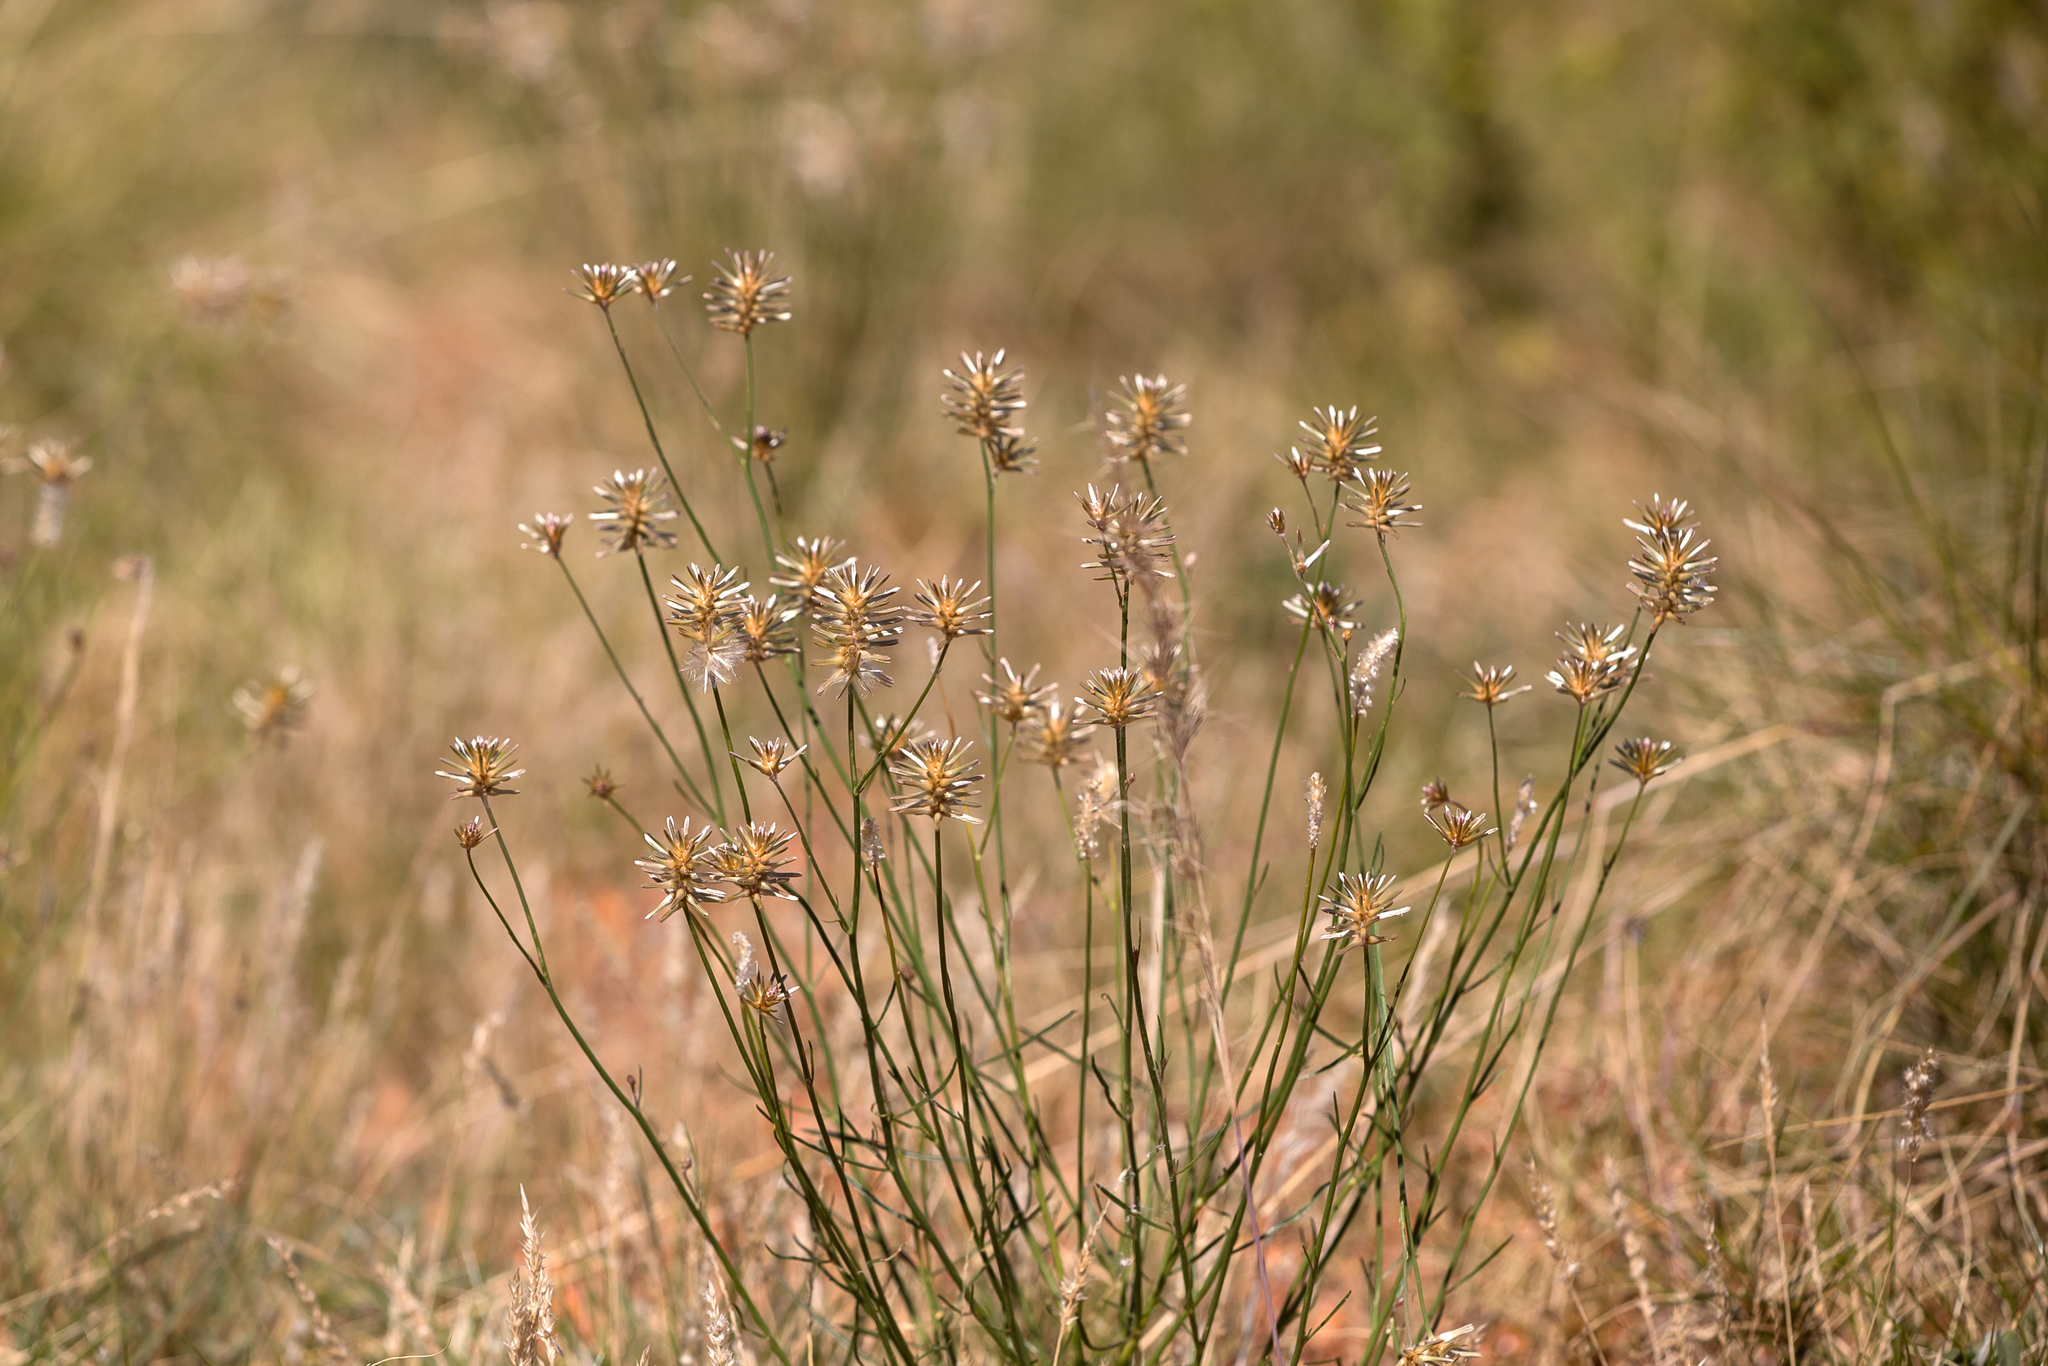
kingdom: Plantae
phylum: Tracheophyta
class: Magnoliopsida
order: Caryophyllales
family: Amaranthaceae
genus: Ptilotus
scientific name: Ptilotus fusiformis
